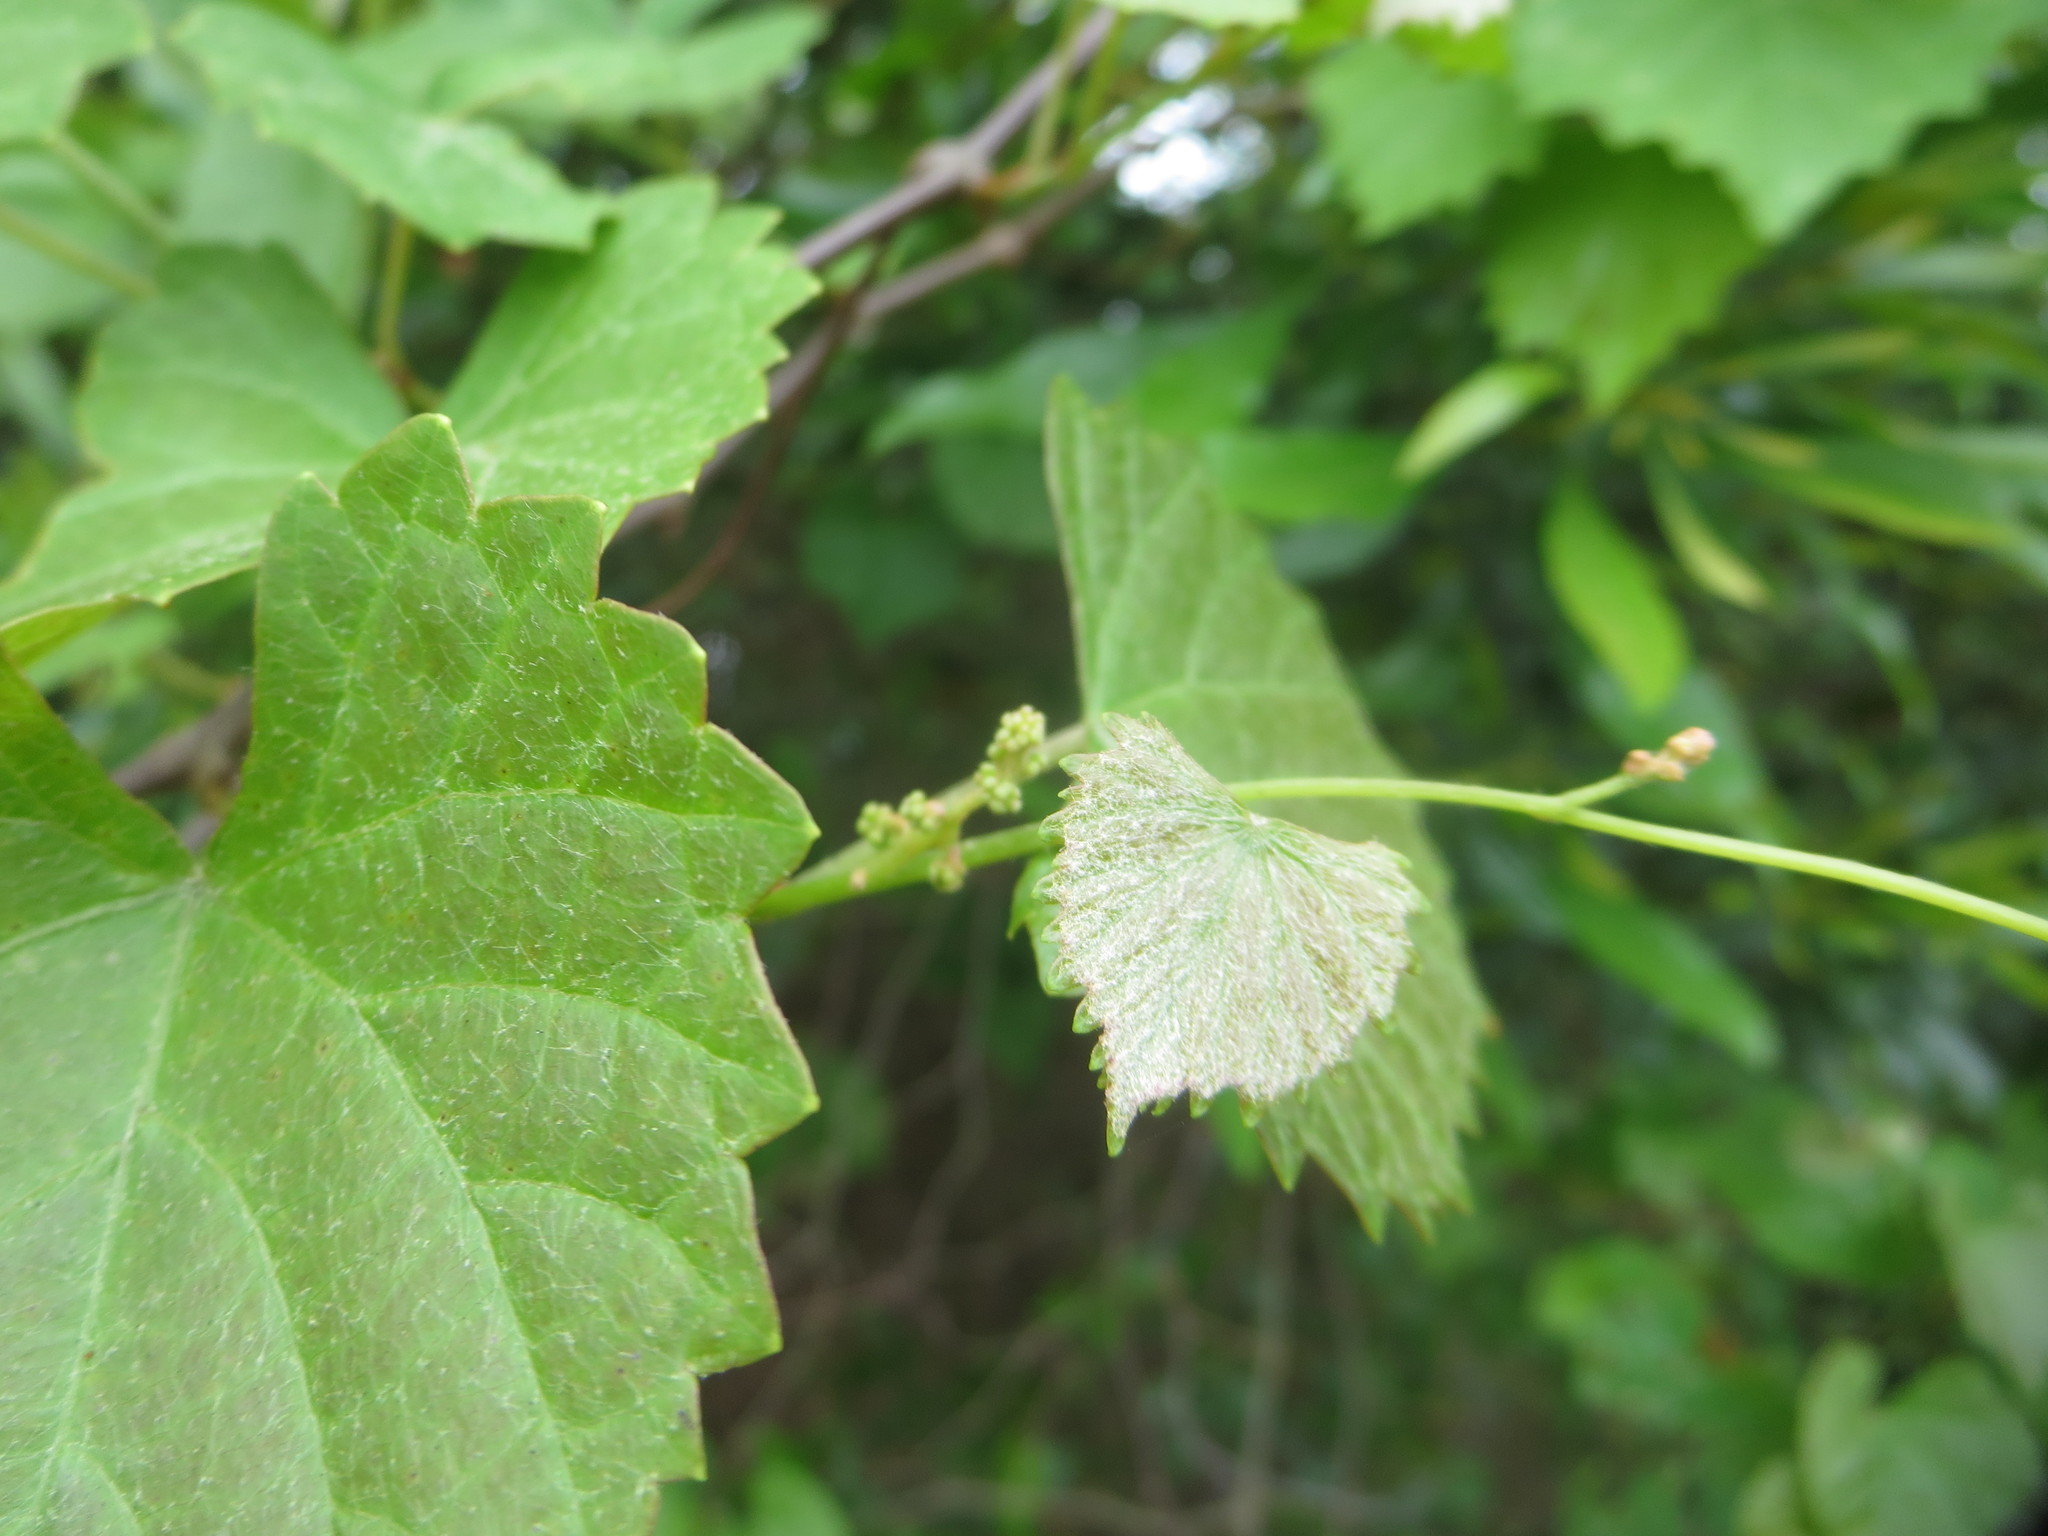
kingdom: Plantae
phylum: Tracheophyta
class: Magnoliopsida
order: Vitales
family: Vitaceae
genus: Vitis
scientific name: Vitis rotundifolia
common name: Muscadine grape
